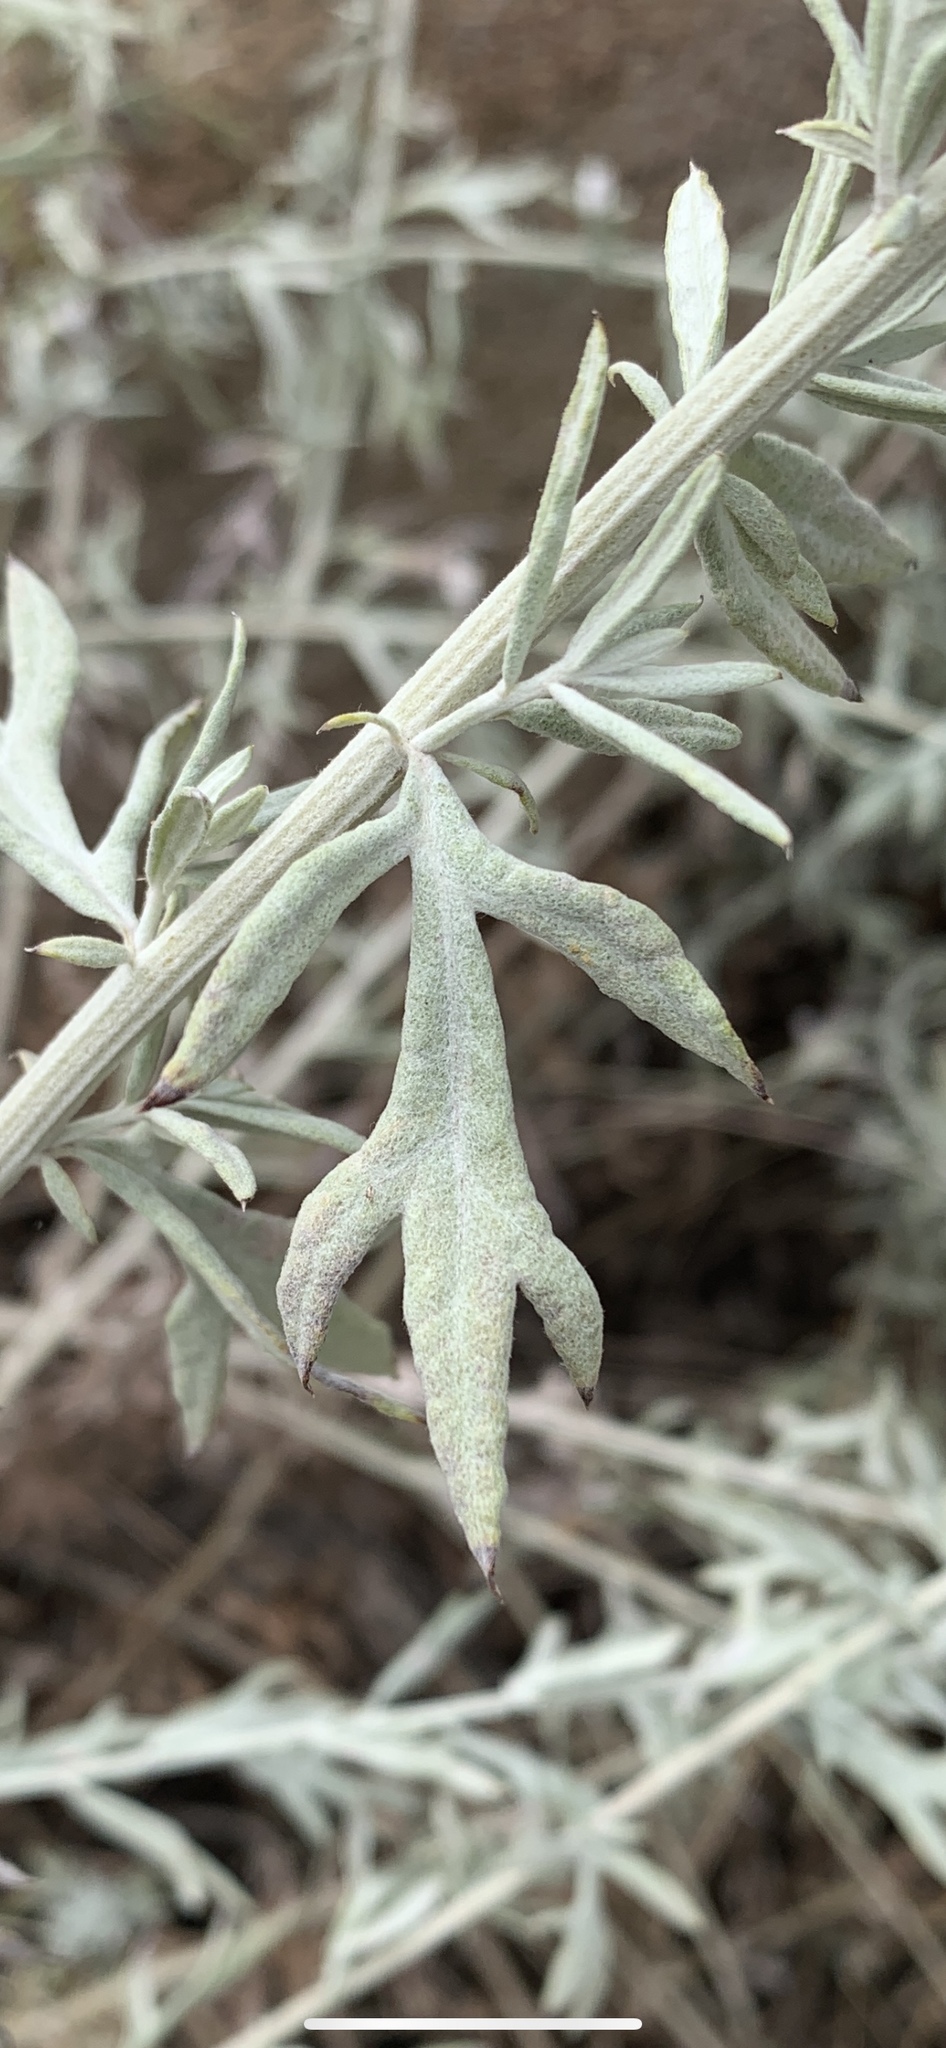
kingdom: Plantae
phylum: Tracheophyta
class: Magnoliopsida
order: Asterales
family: Asteraceae
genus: Artemisia
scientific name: Artemisia ludoviciana
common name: Western mugwort
